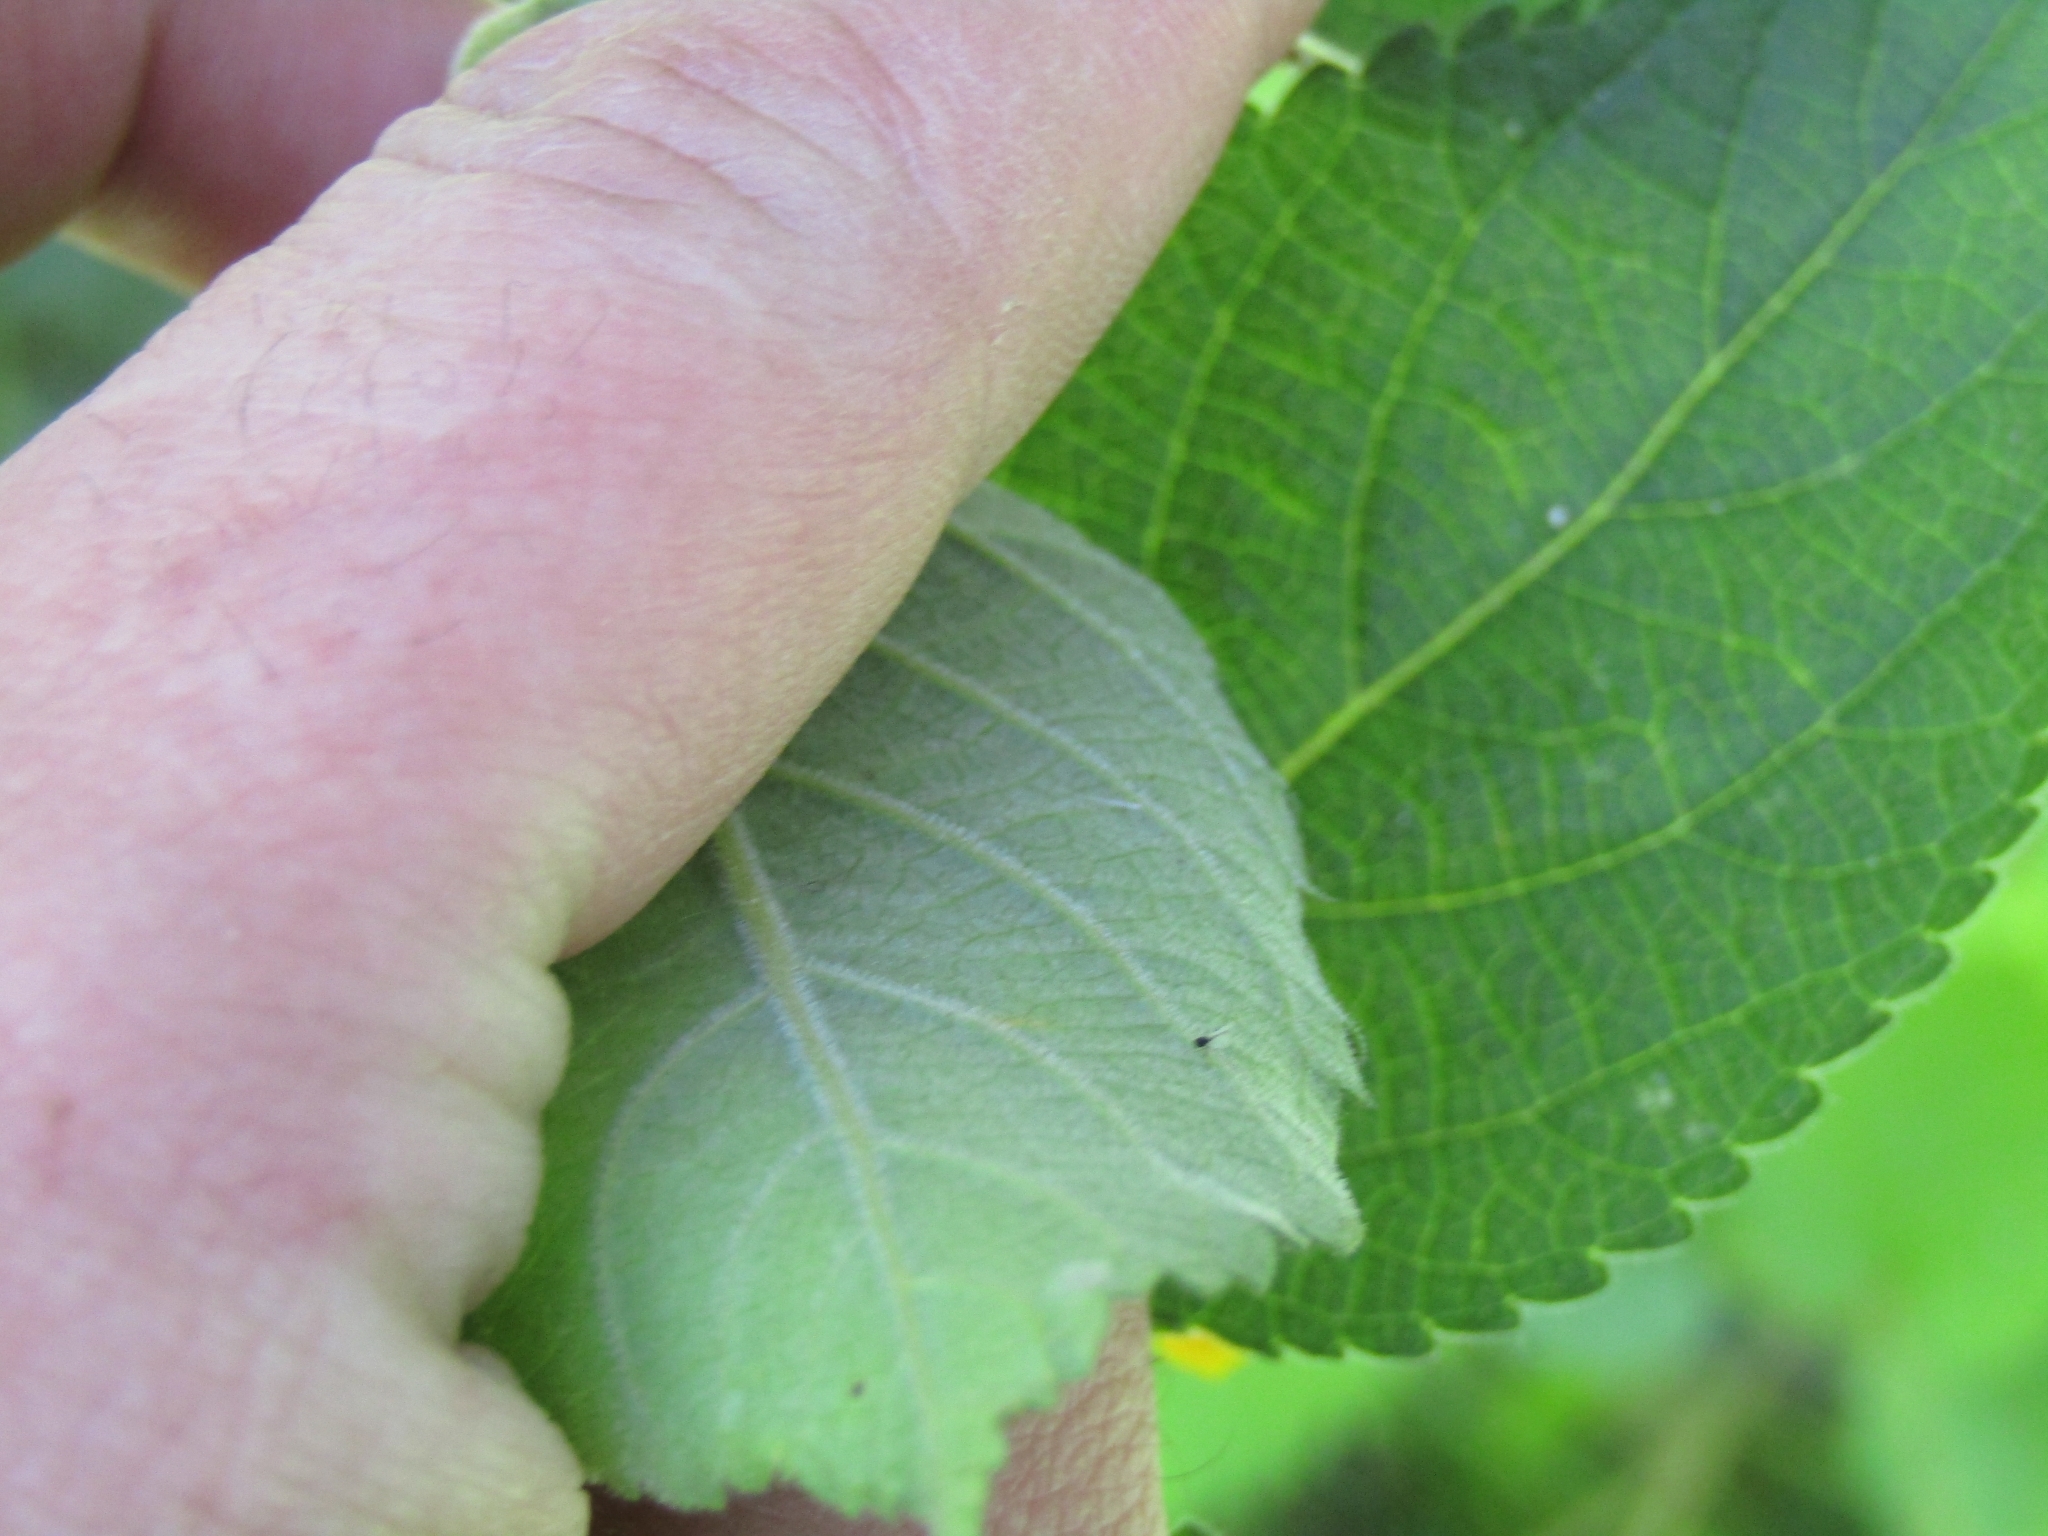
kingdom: Plantae
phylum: Tracheophyta
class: Magnoliopsida
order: Lamiales
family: Verbenaceae
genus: Lantana
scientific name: Lantana camara
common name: Lantana
